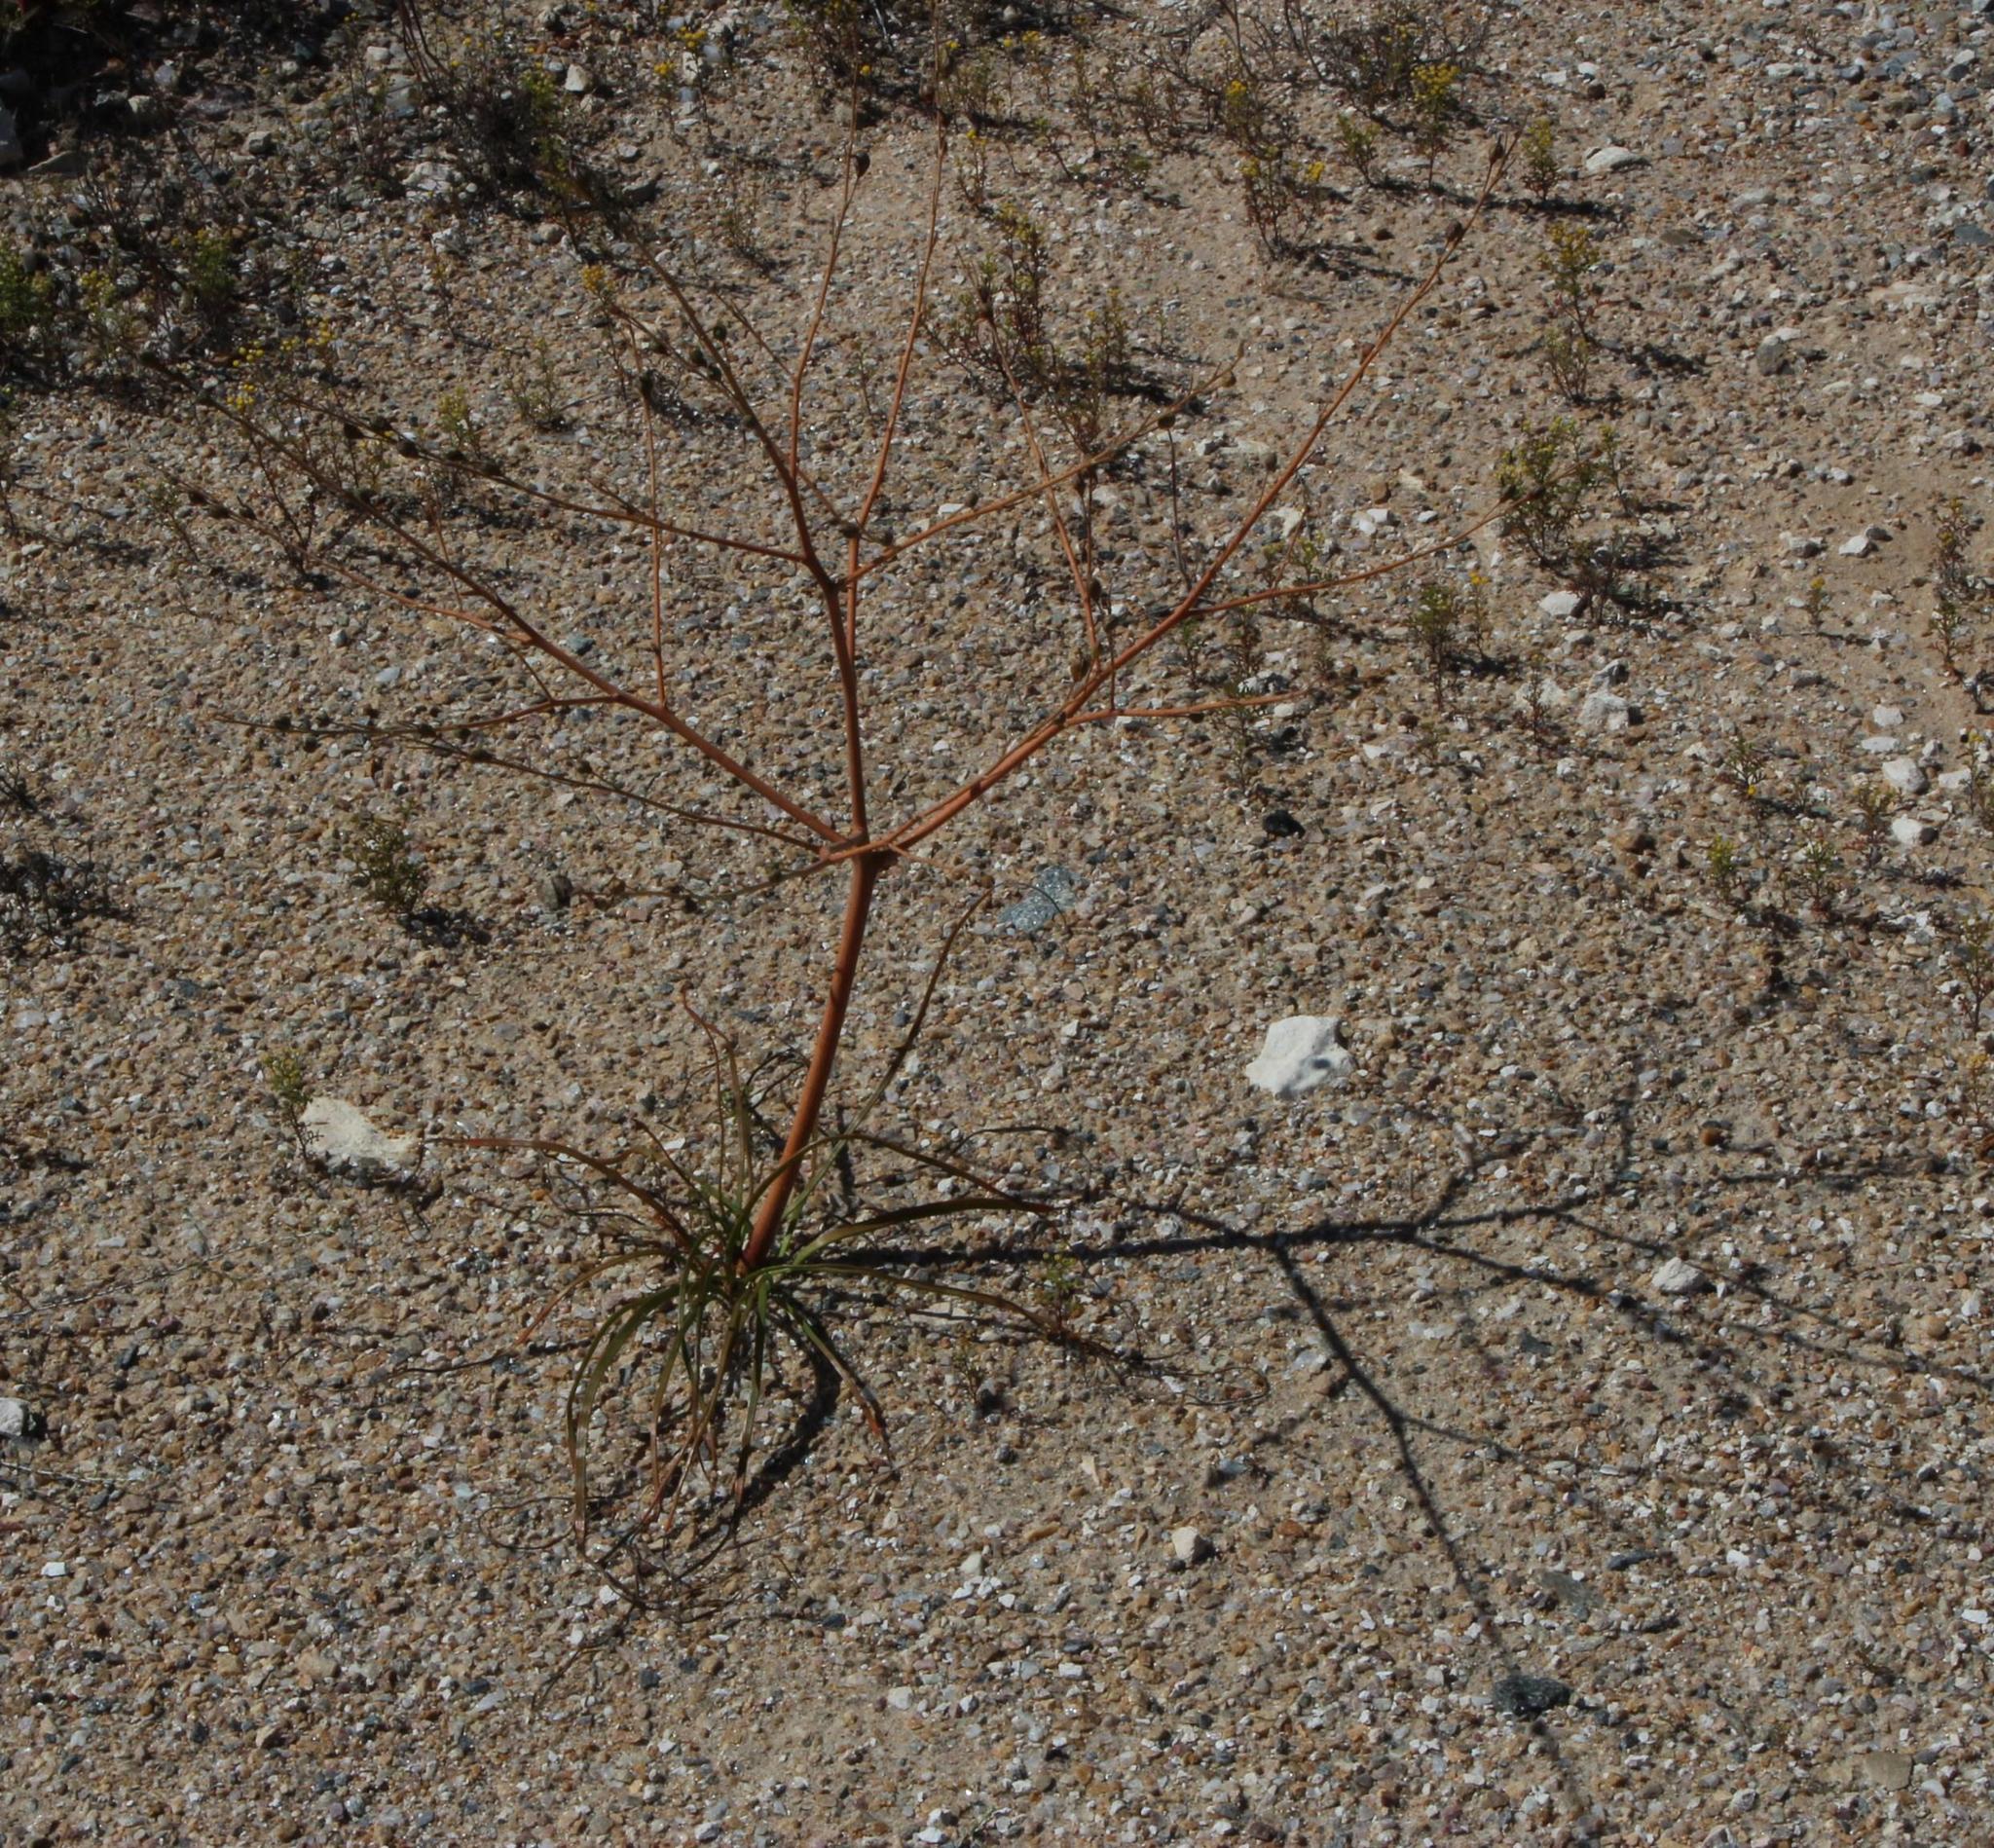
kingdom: Plantae
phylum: Tracheophyta
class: Liliopsida
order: Asparagales
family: Asphodelaceae
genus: Trachyandra
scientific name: Trachyandra bulbinifolia
